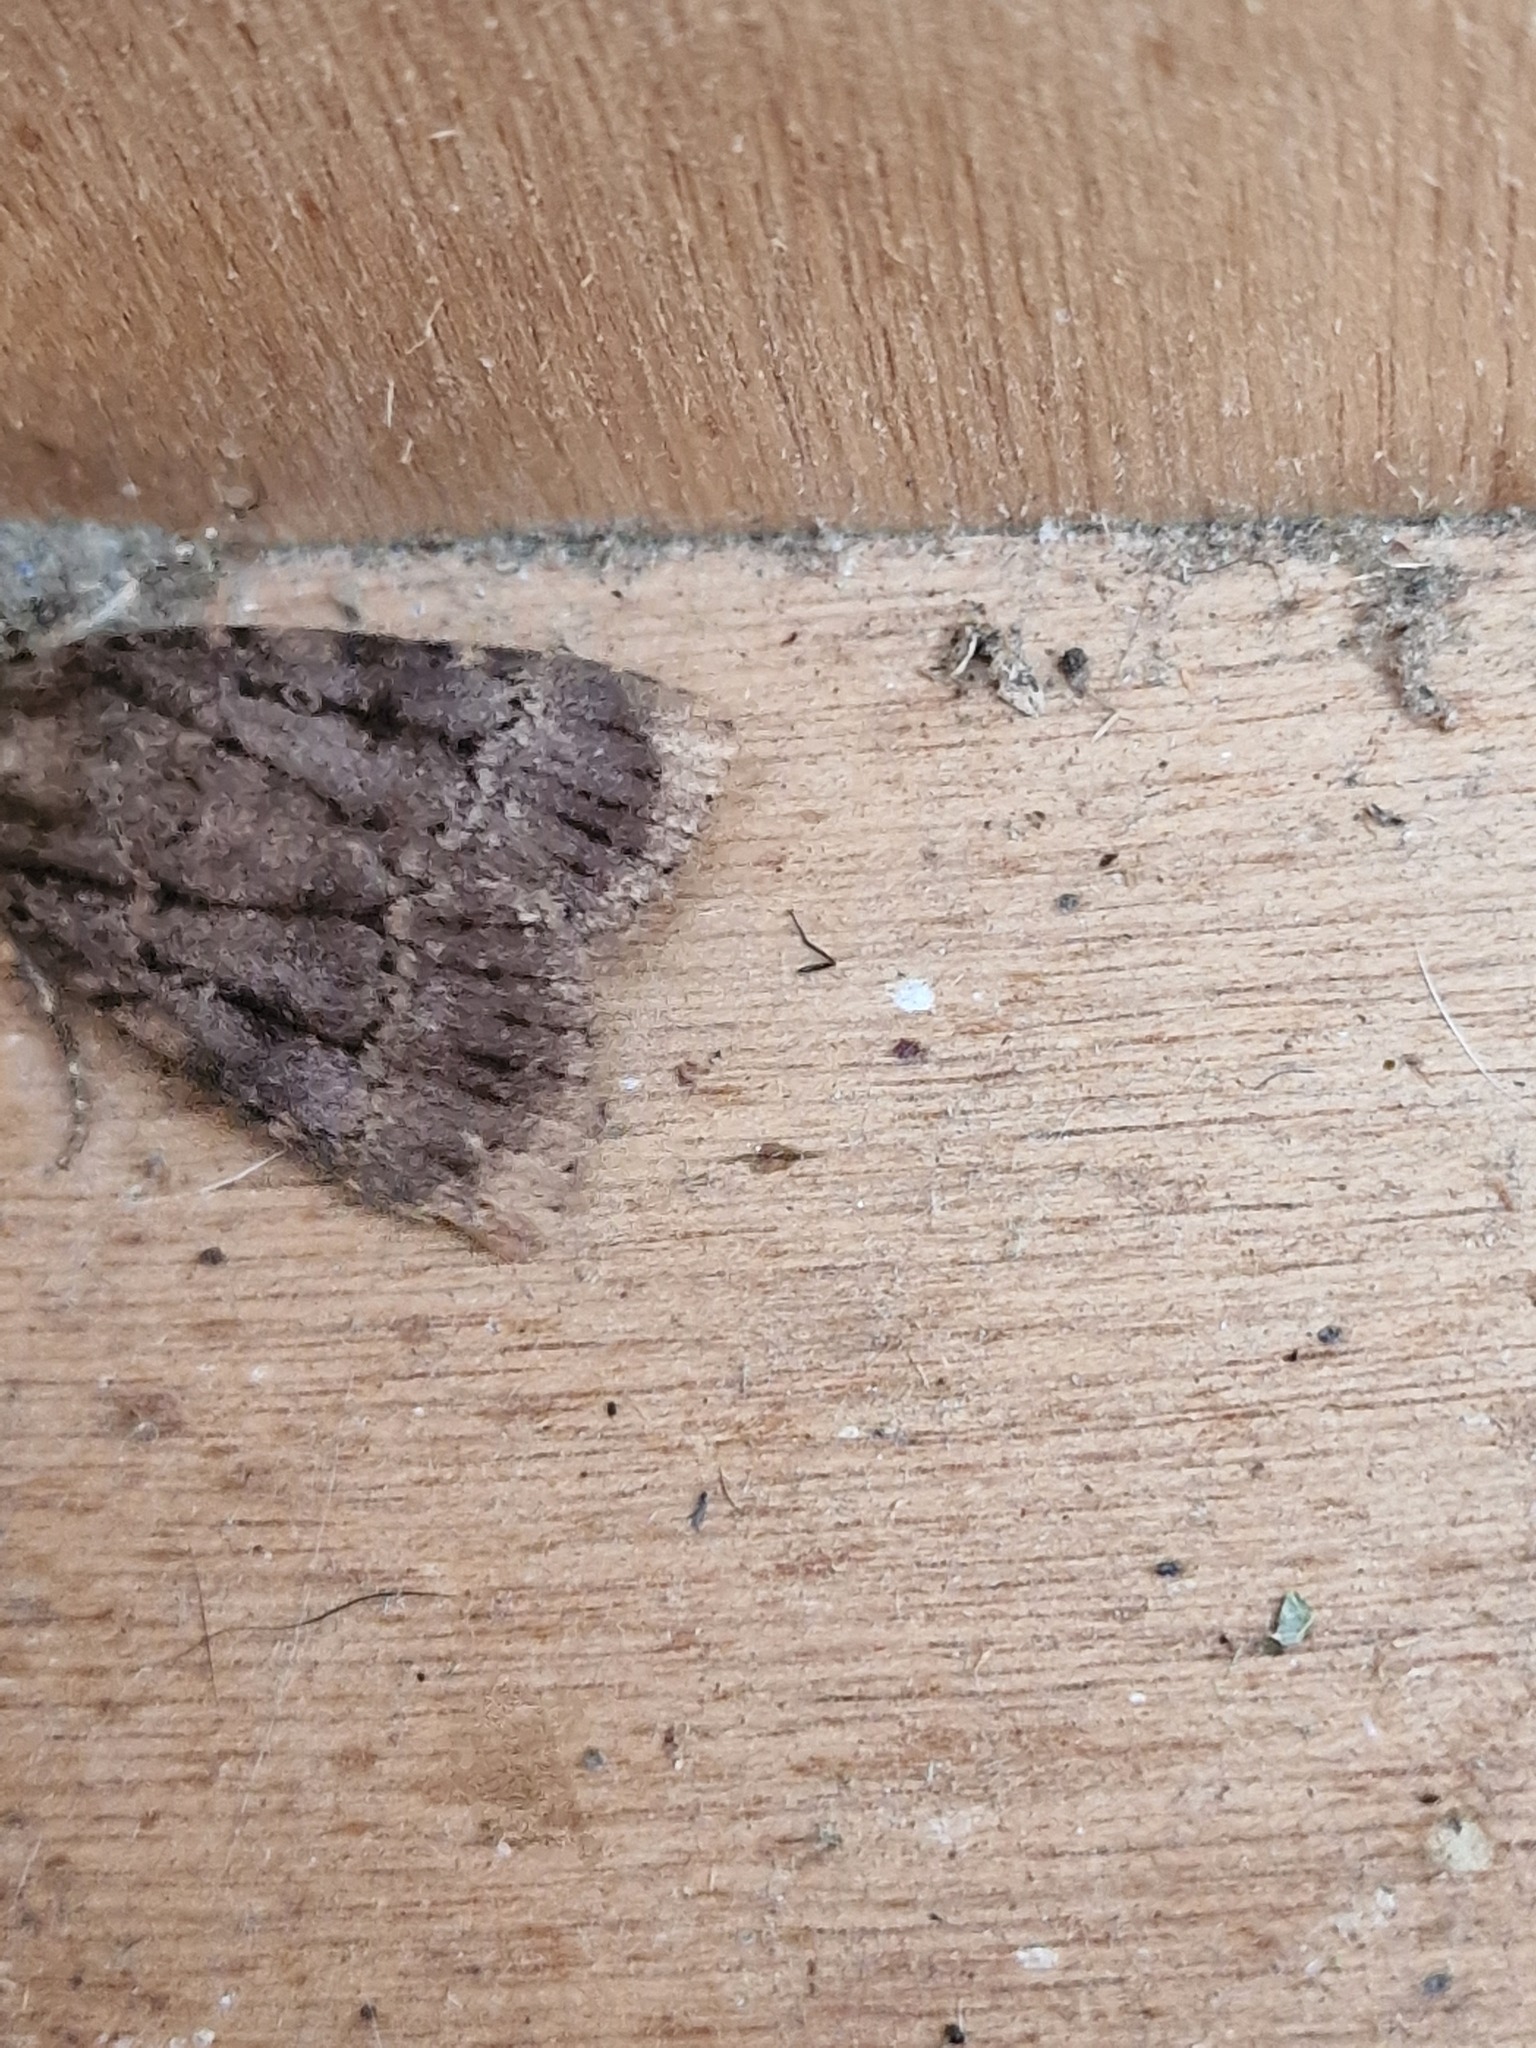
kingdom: Animalia
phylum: Arthropoda
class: Insecta
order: Lepidoptera
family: Noctuidae
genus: Amphipyra
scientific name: Amphipyra pyramidea
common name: Copper underwing
